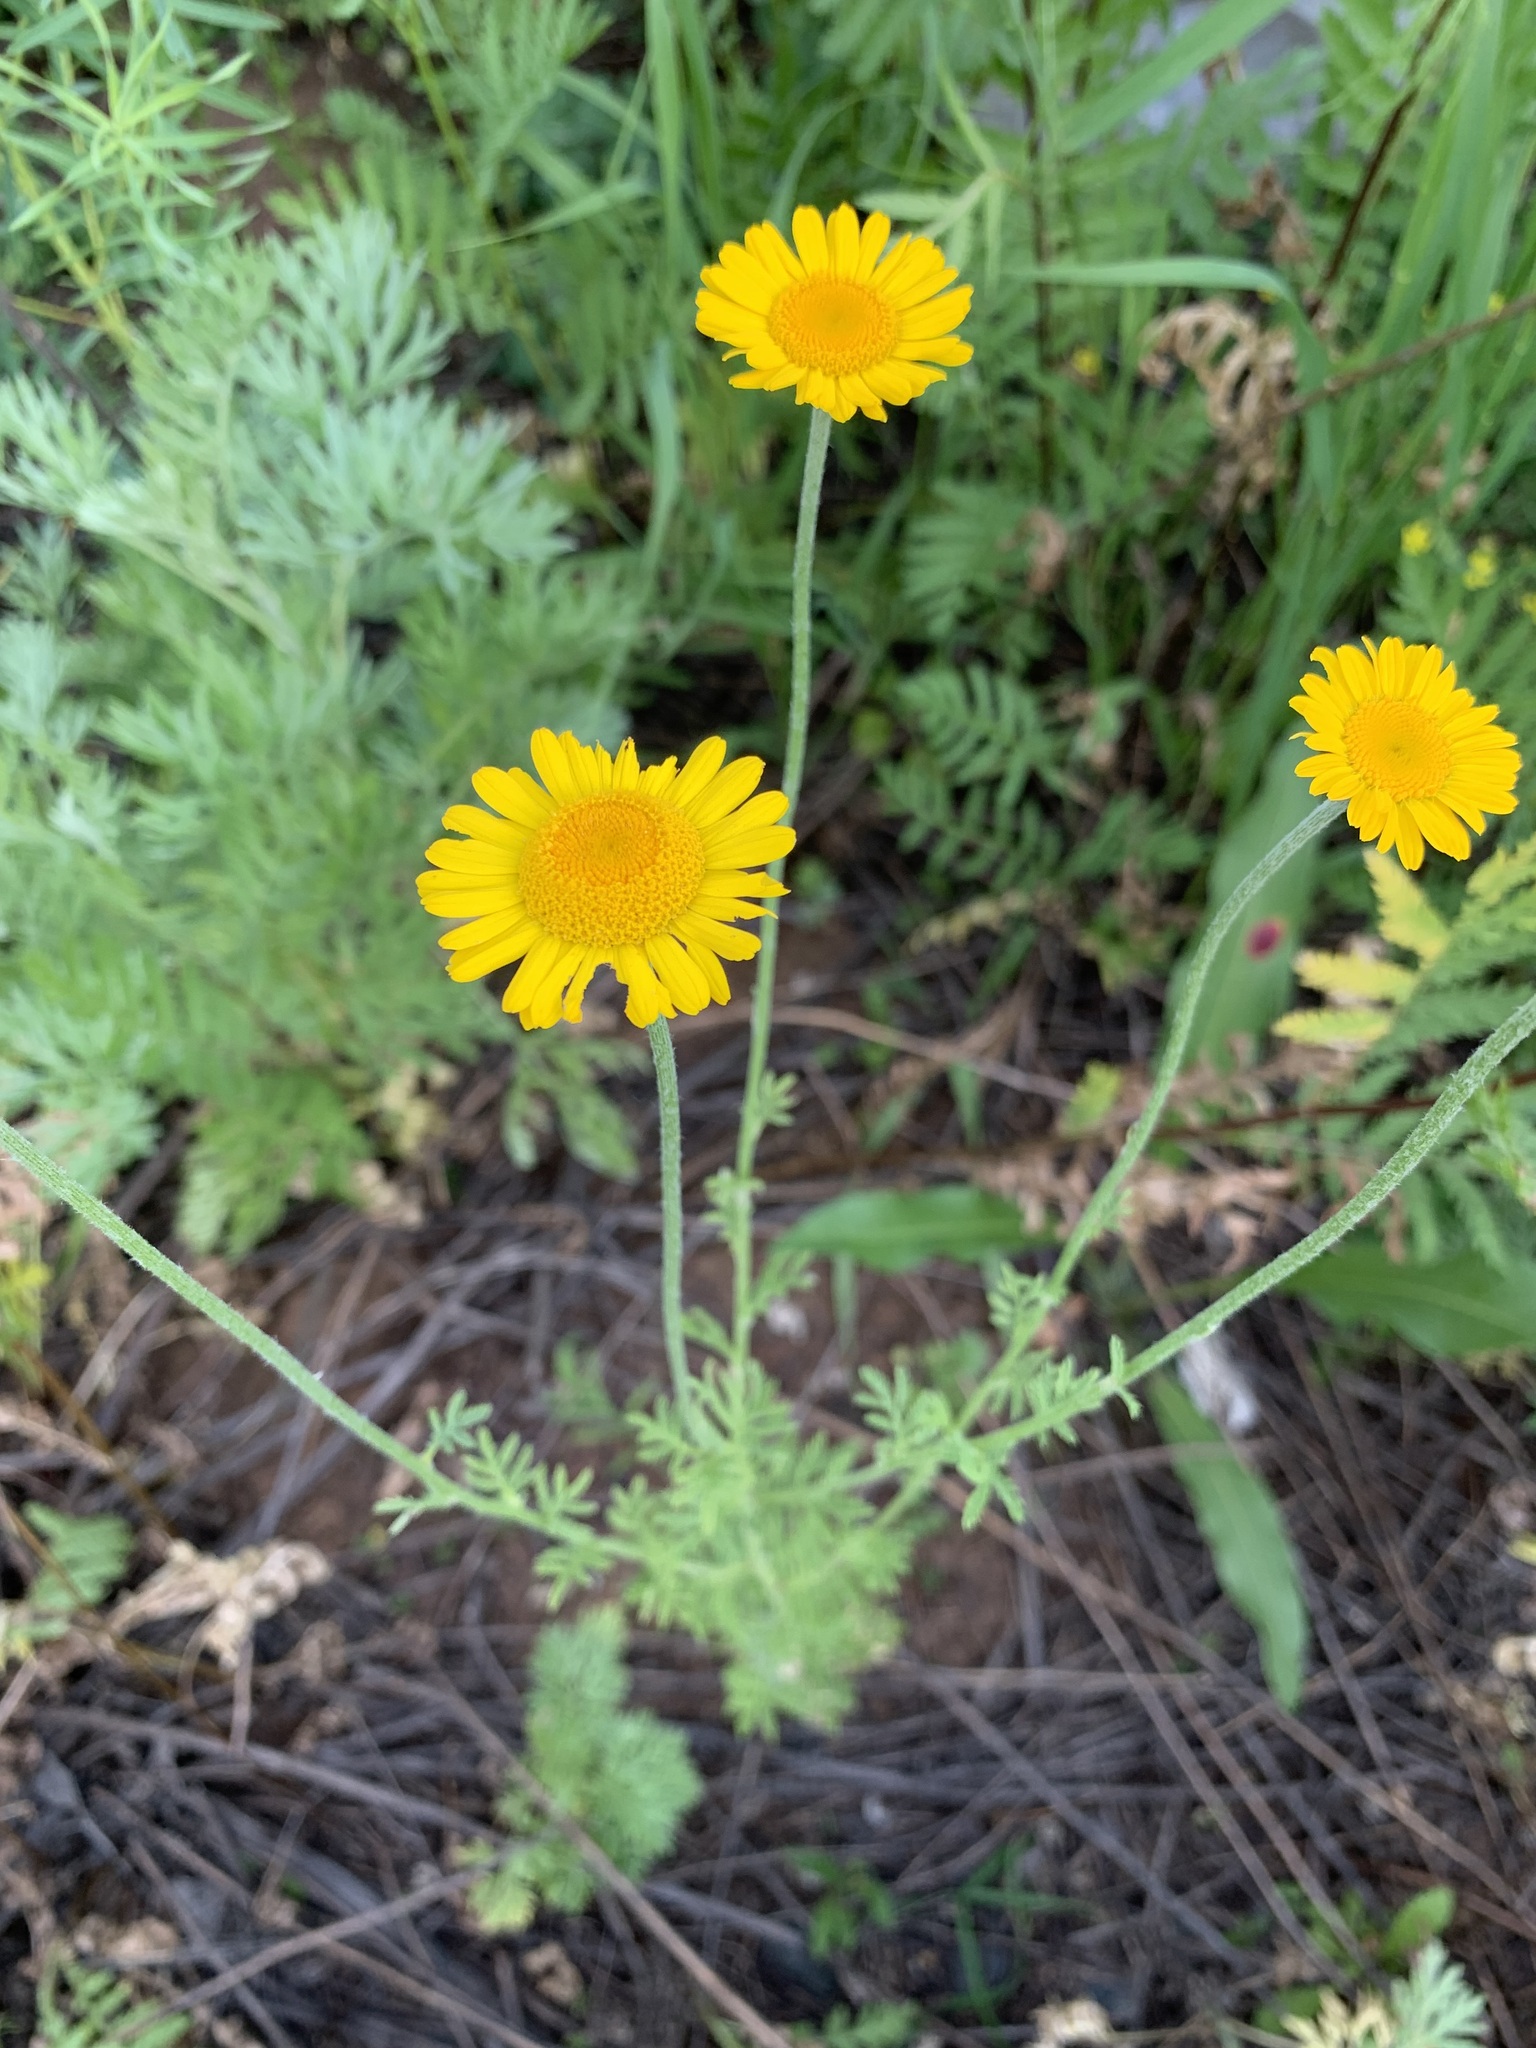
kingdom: Plantae
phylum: Tracheophyta
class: Magnoliopsida
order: Asterales
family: Asteraceae
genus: Cota
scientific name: Cota tinctoria
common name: Golden chamomile
